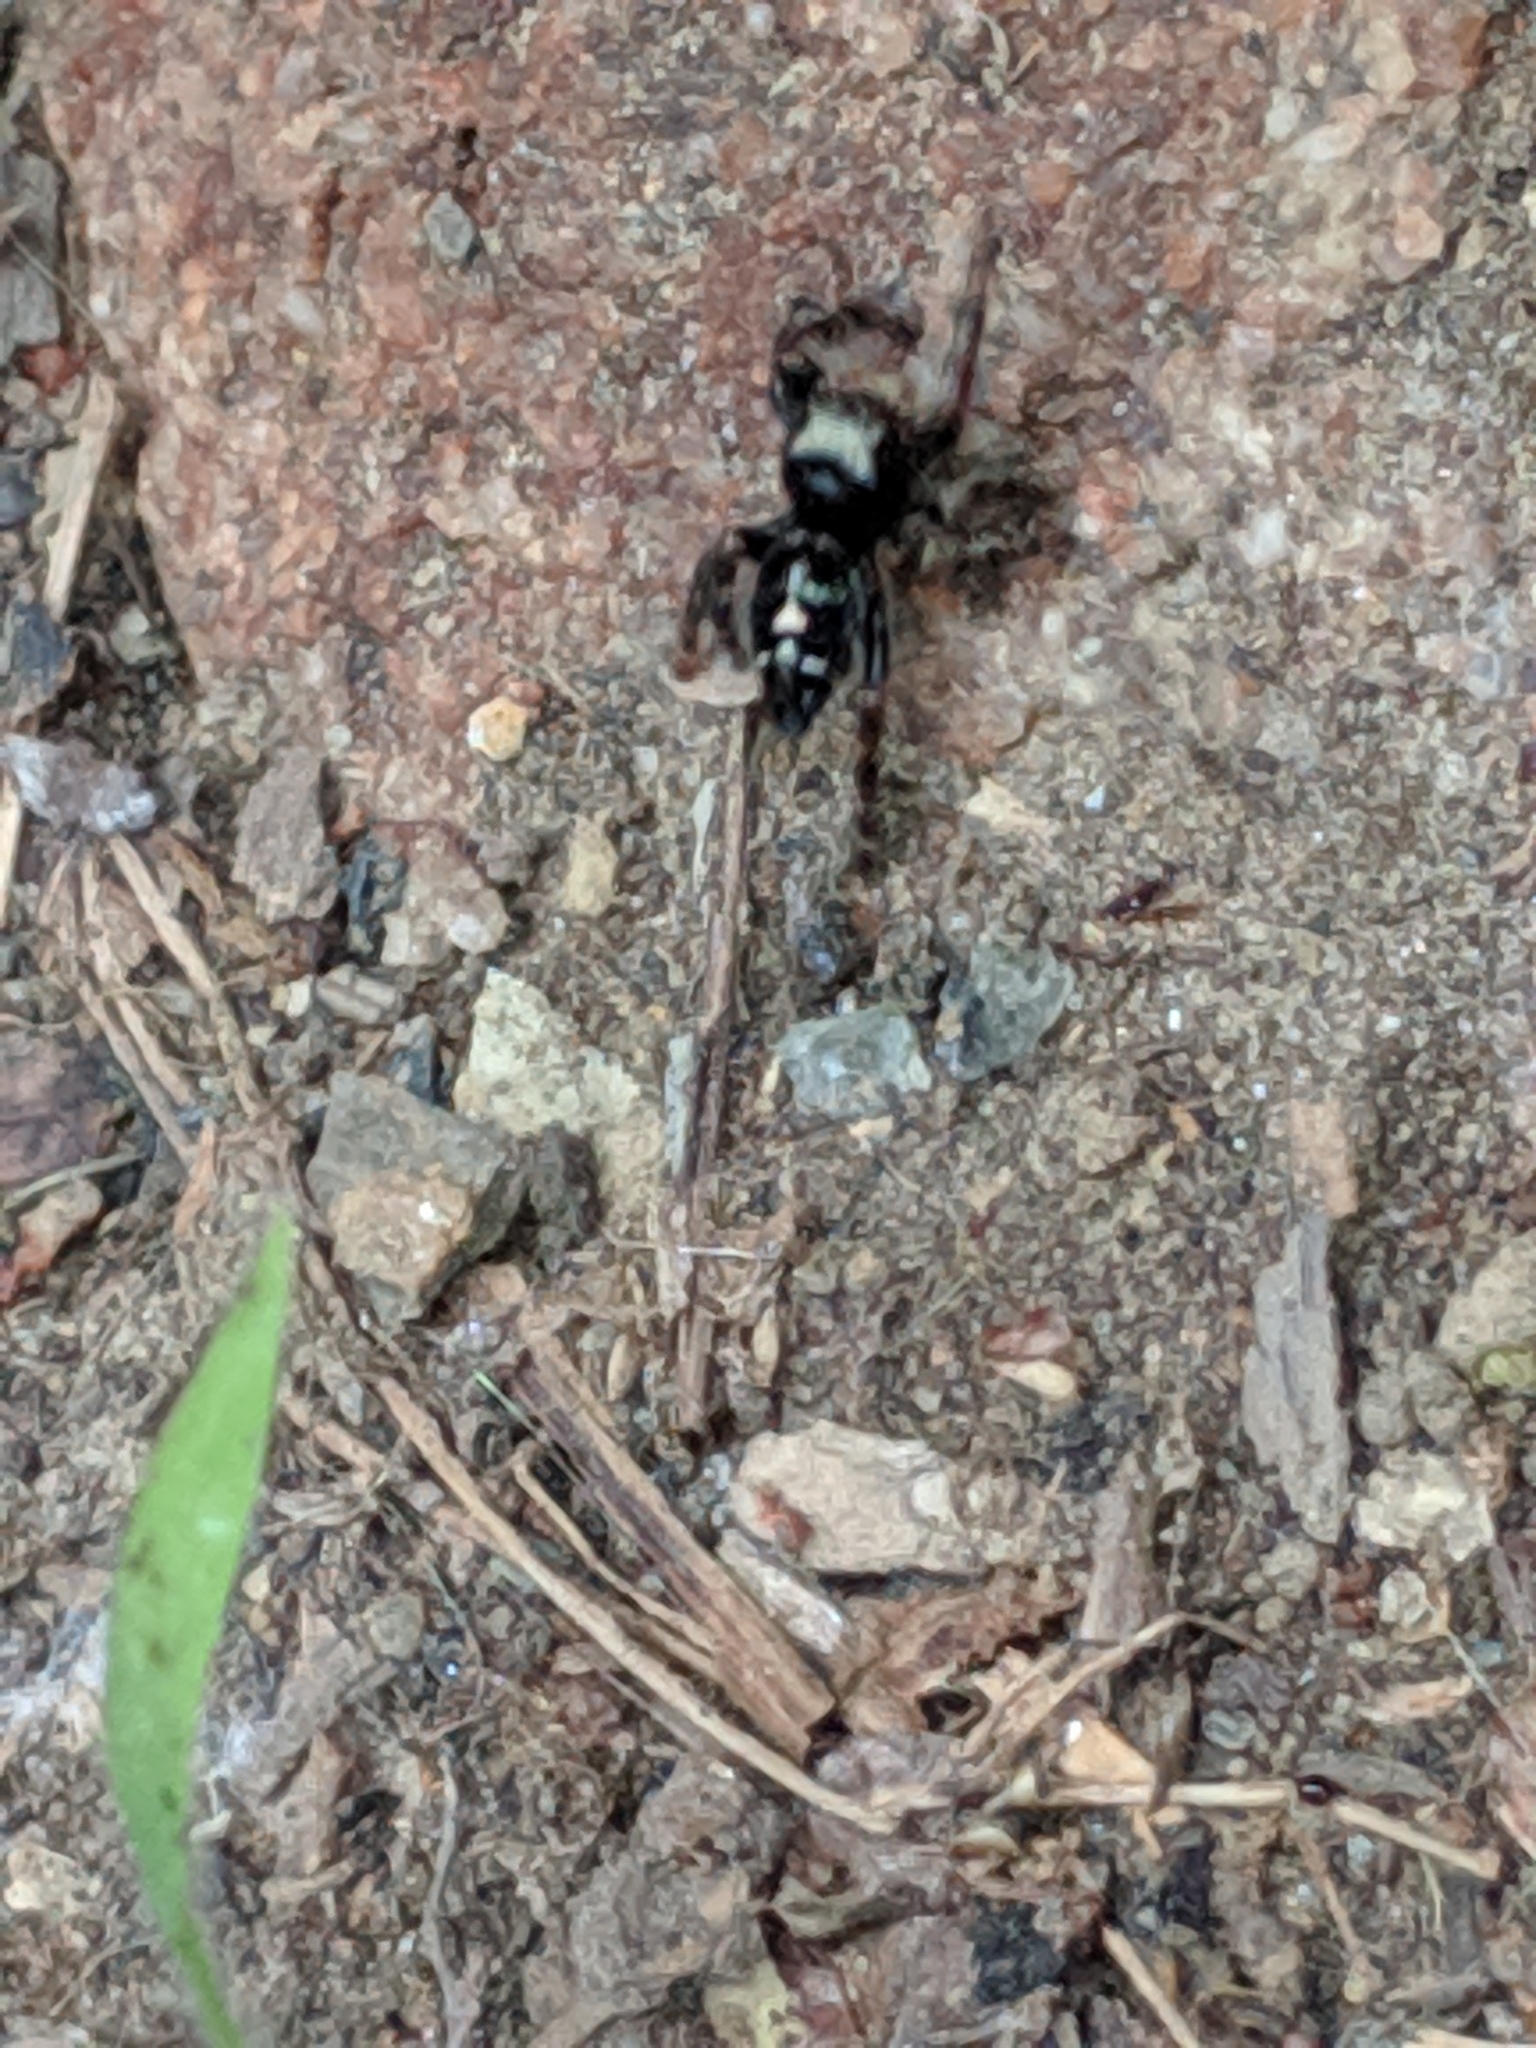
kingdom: Animalia
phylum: Arthropoda
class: Arachnida
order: Araneae
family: Salticidae
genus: Phidippus
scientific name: Phidippus audax
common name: Bold jumper
